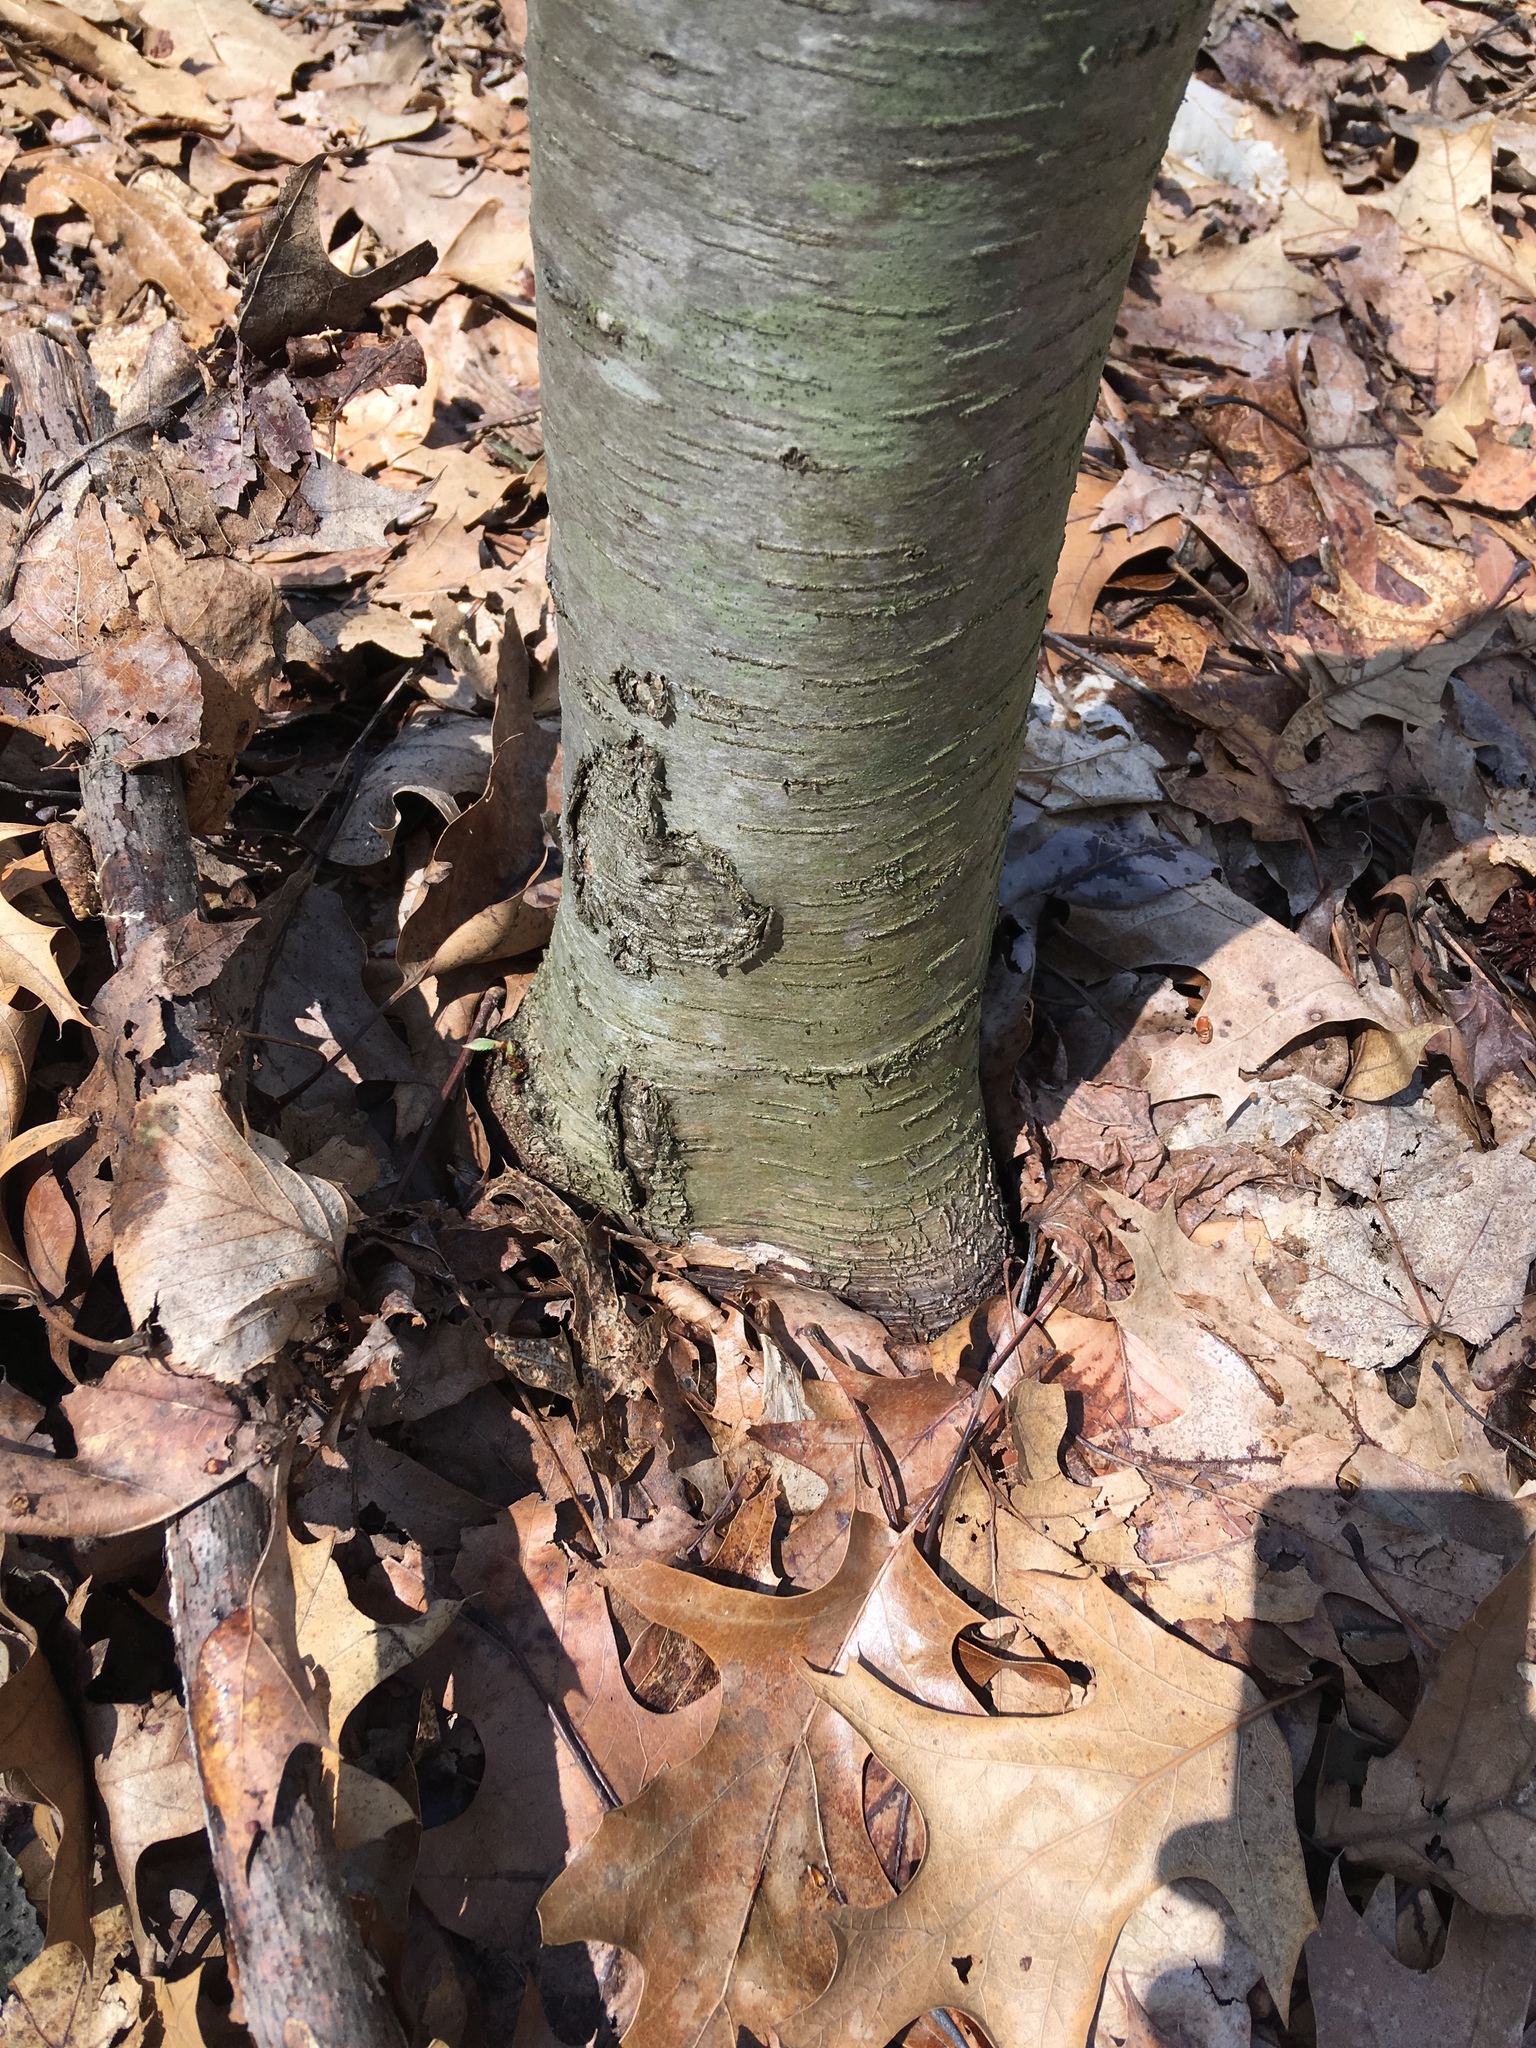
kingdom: Plantae
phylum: Tracheophyta
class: Magnoliopsida
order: Fagales
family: Betulaceae
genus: Betula
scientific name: Betula lenta
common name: Black birch
